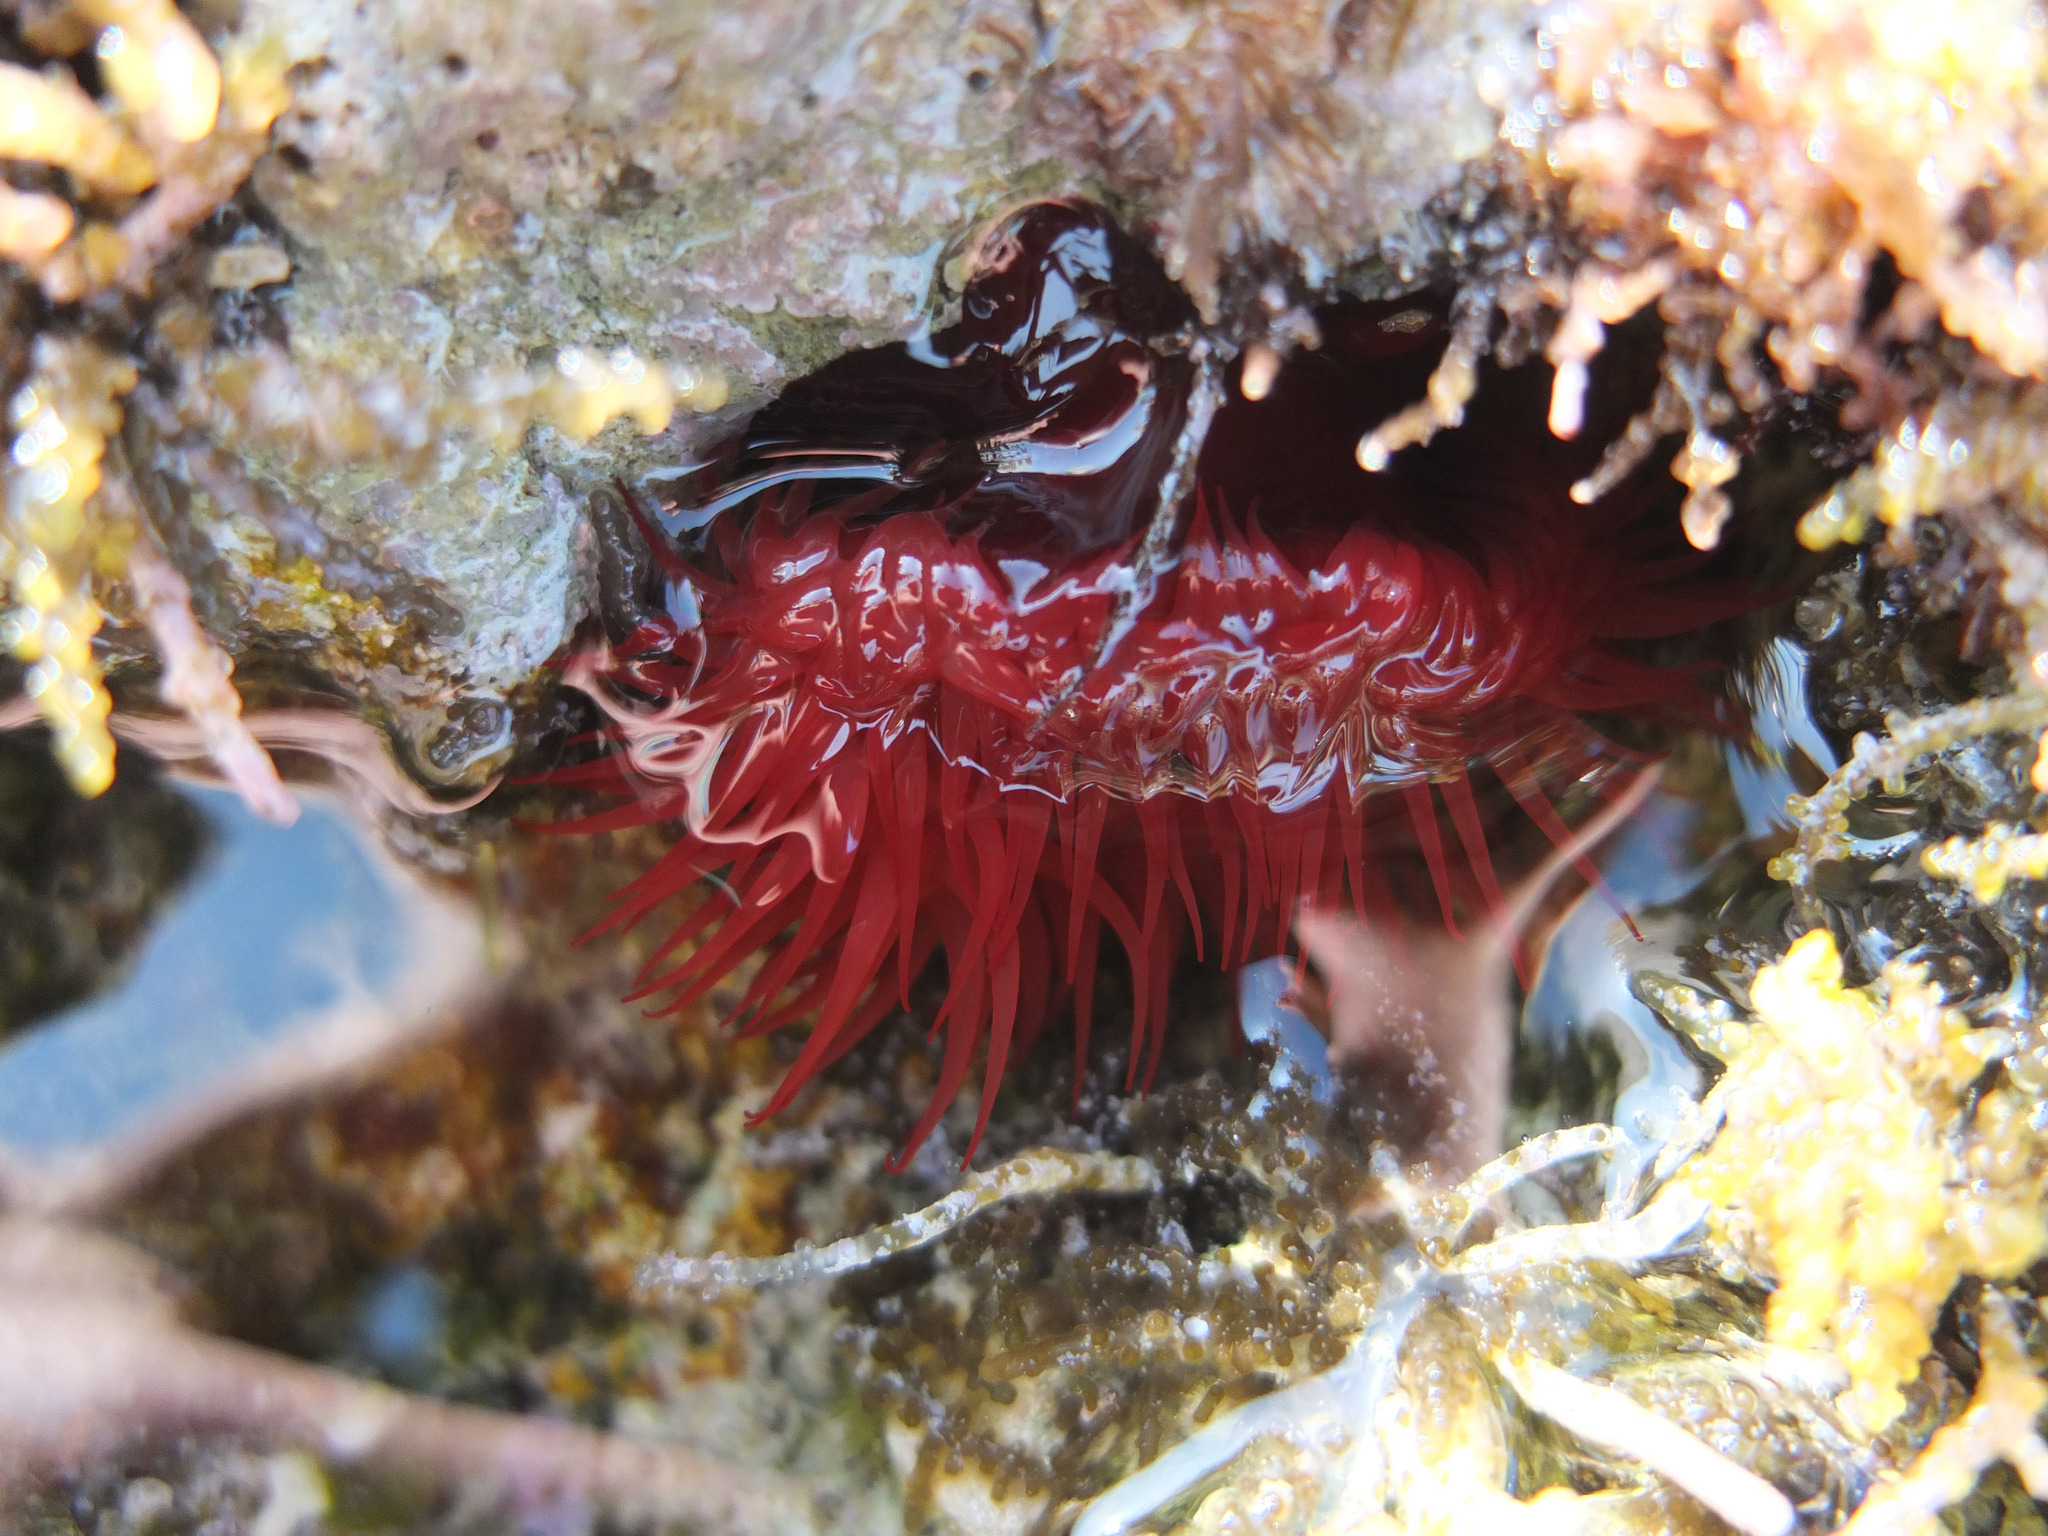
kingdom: Animalia
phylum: Cnidaria
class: Anthozoa
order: Actiniaria
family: Actiniidae
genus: Actinia
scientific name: Actinia mediterranea
